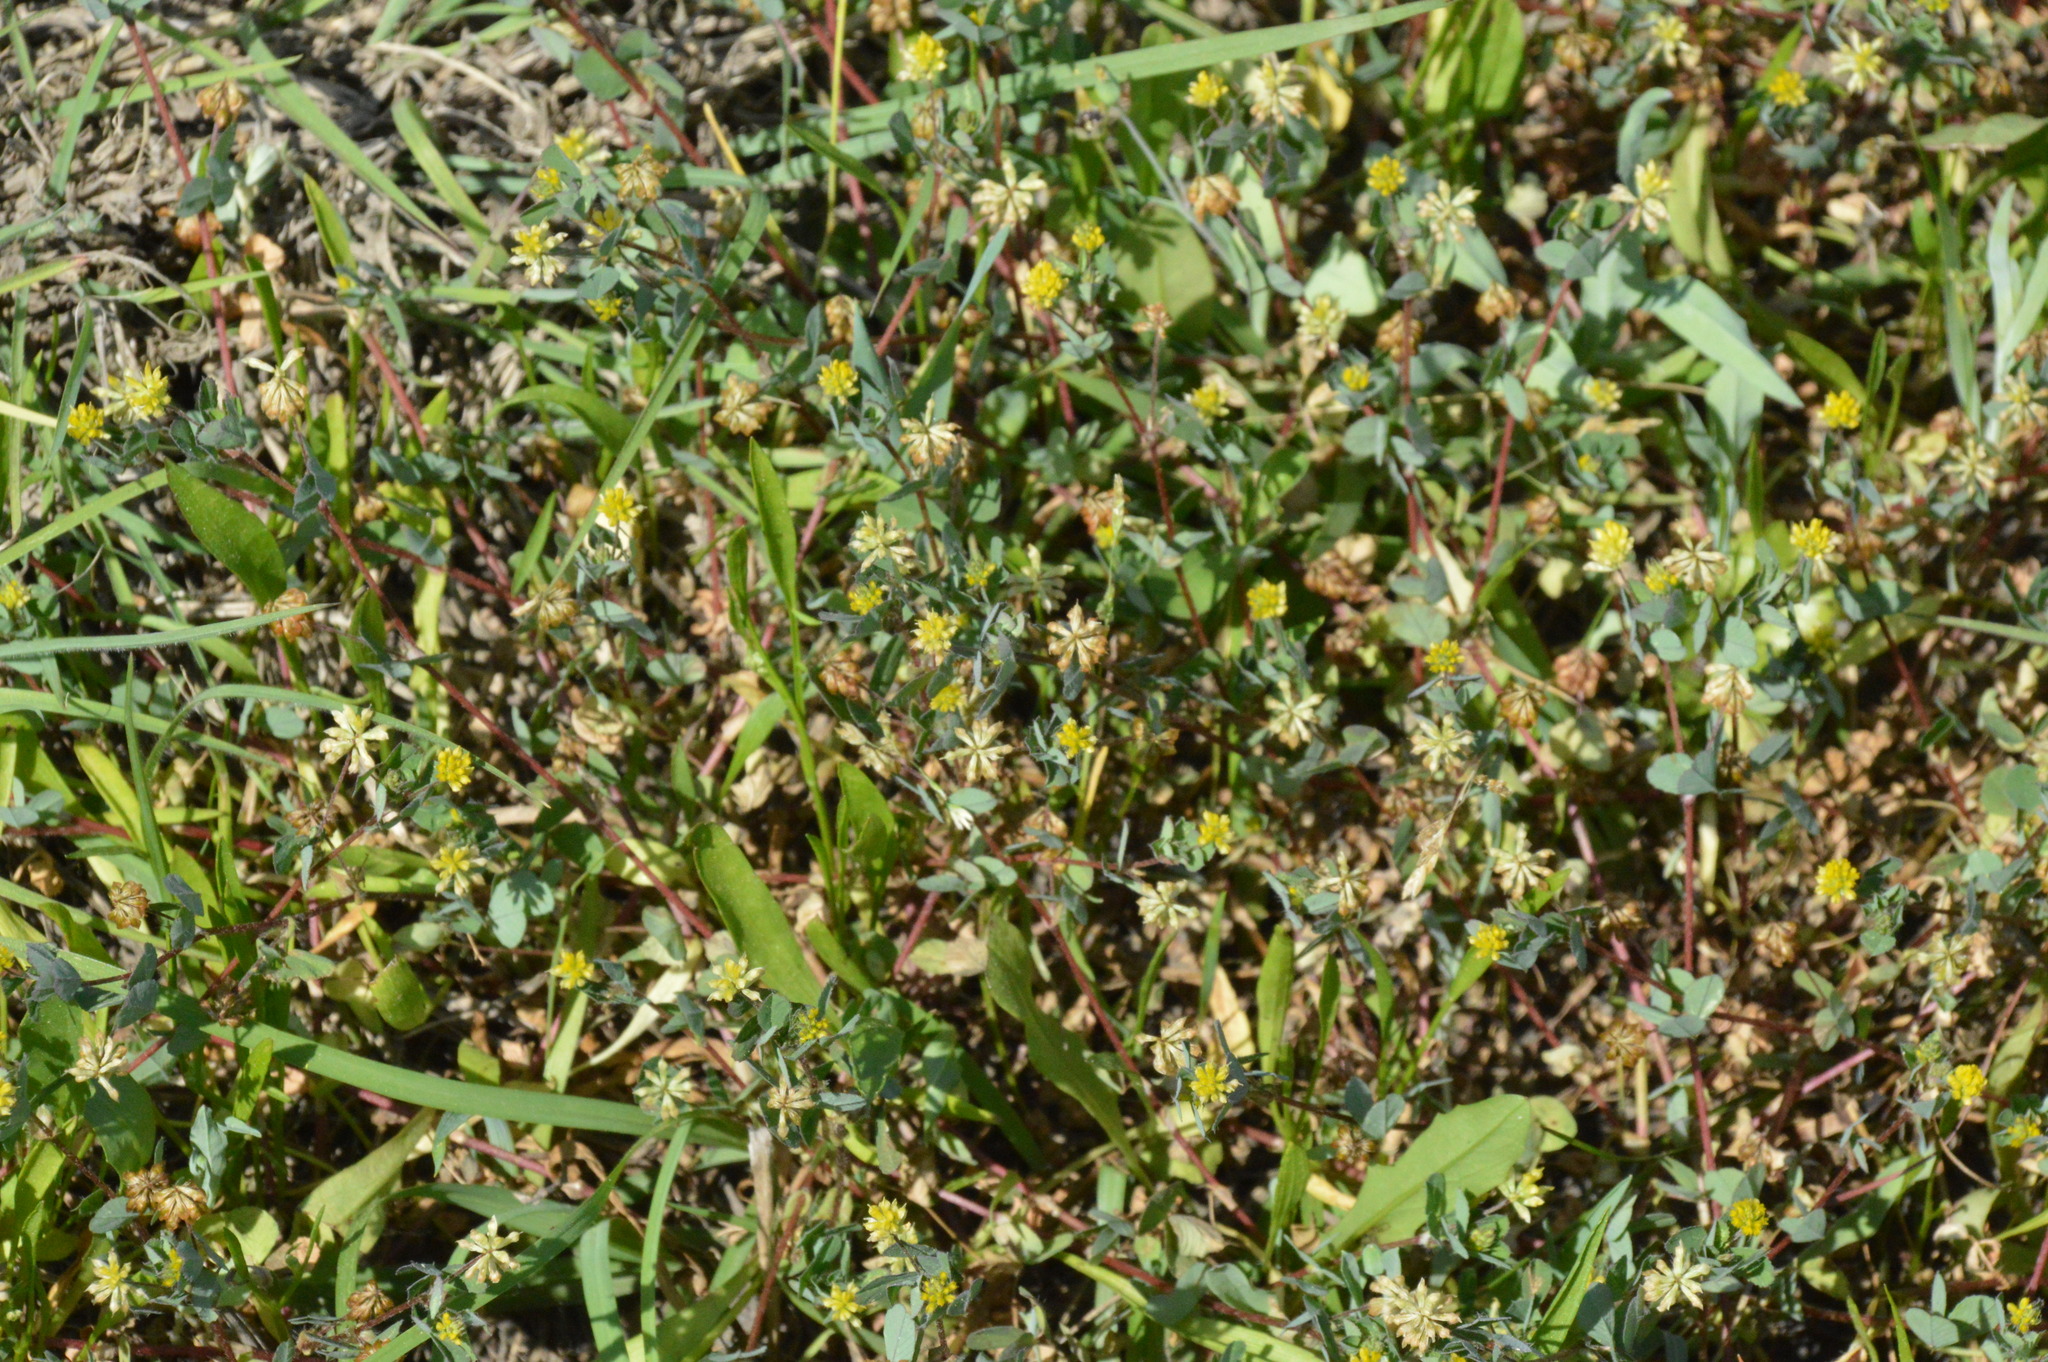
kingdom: Plantae
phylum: Tracheophyta
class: Magnoliopsida
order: Fabales
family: Fabaceae
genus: Trifolium
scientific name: Trifolium dubium
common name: Suckling clover
